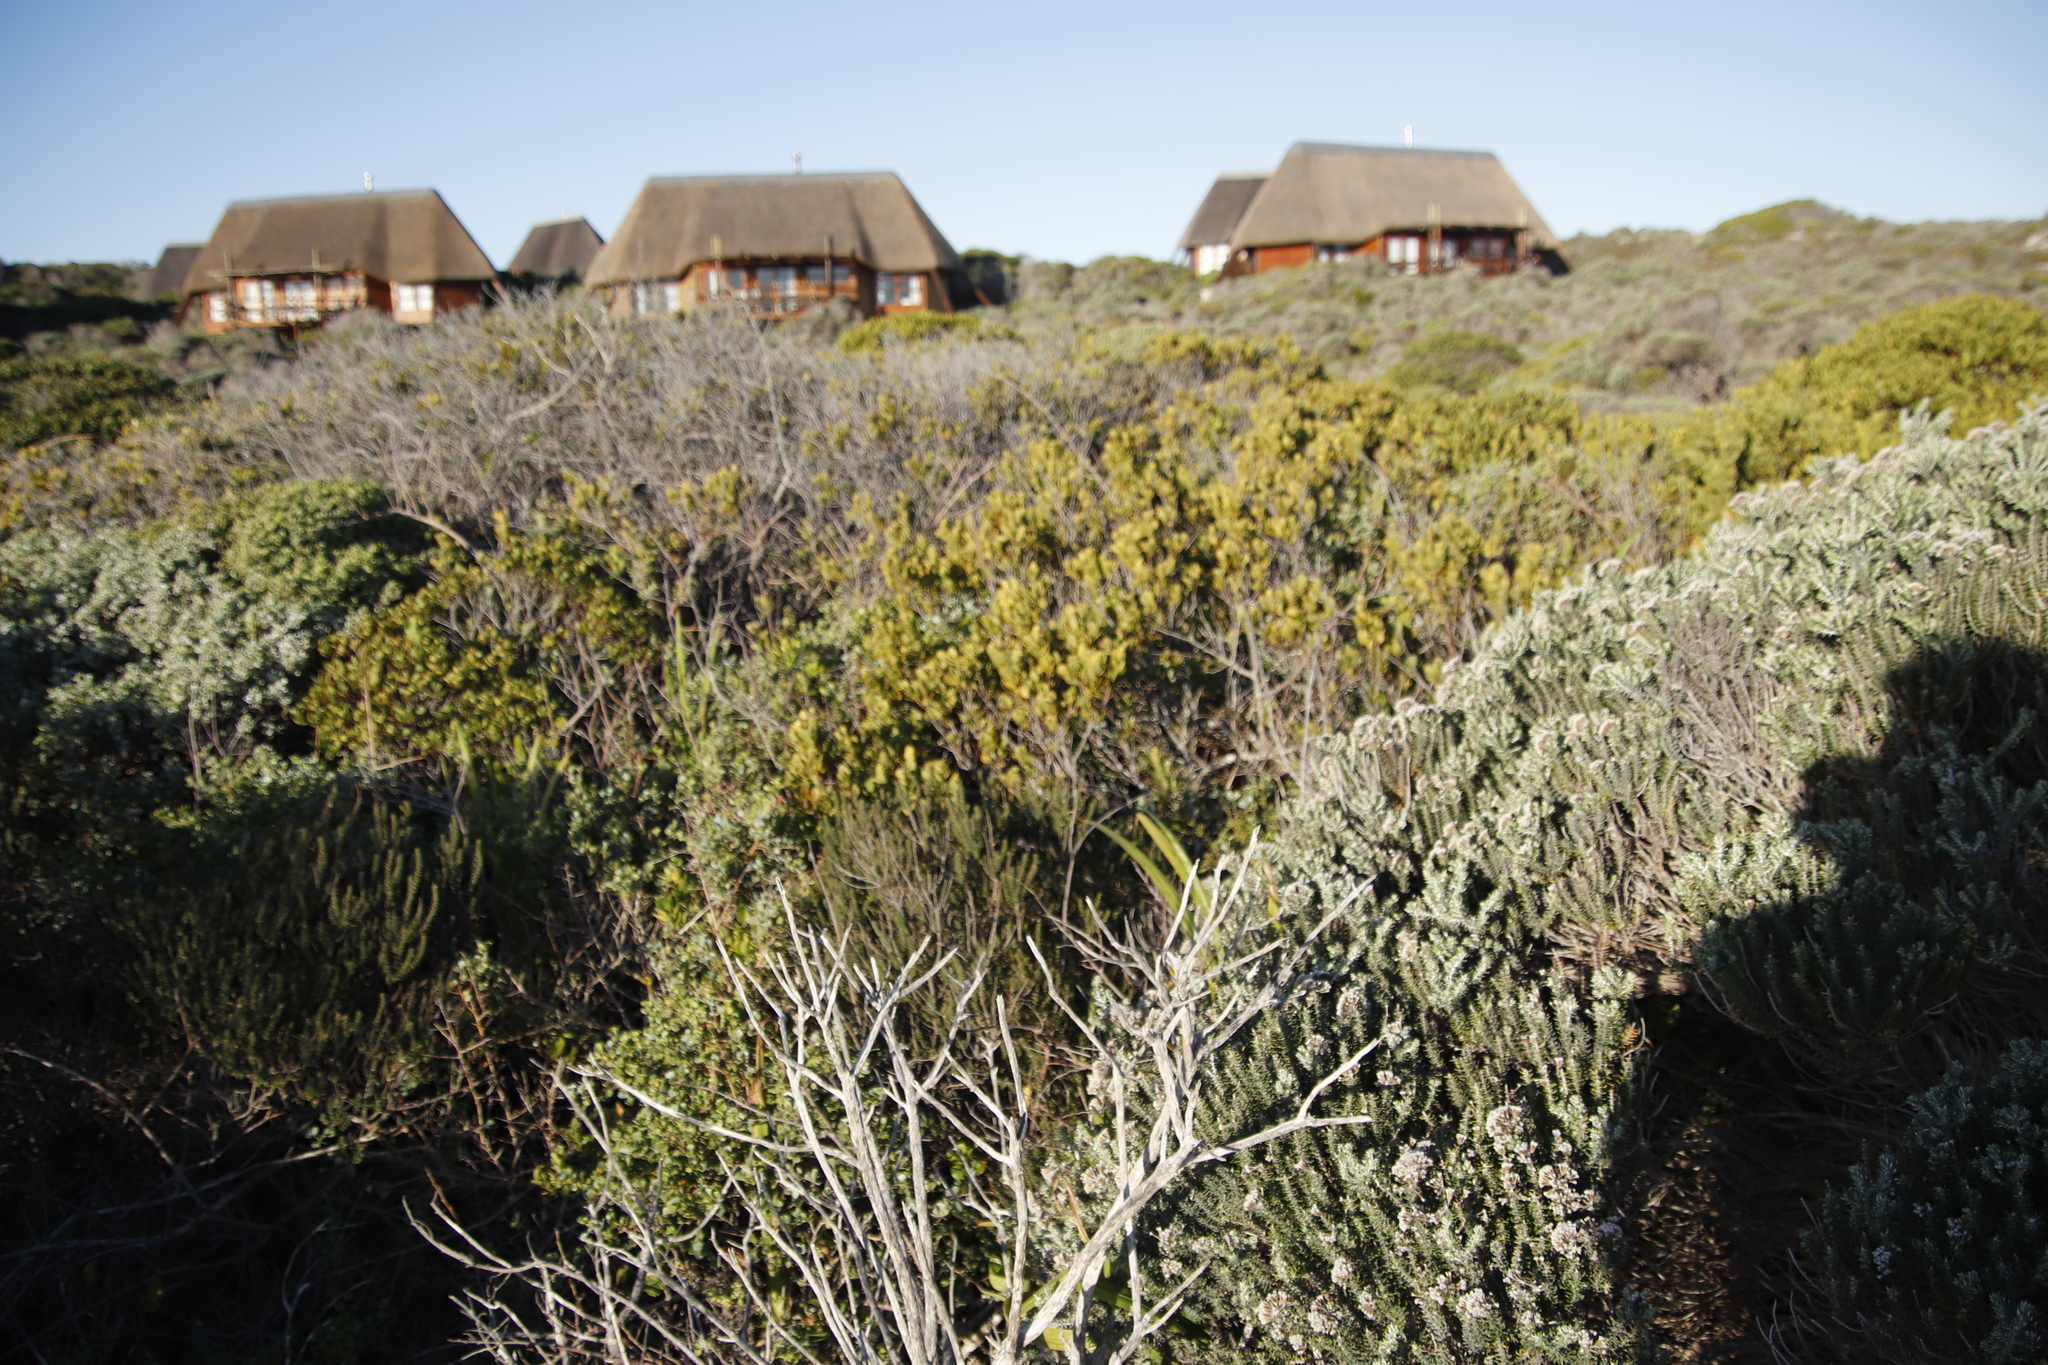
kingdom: Plantae
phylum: Tracheophyta
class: Magnoliopsida
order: Santalales
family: Santalaceae
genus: Osyris
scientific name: Osyris compressa
